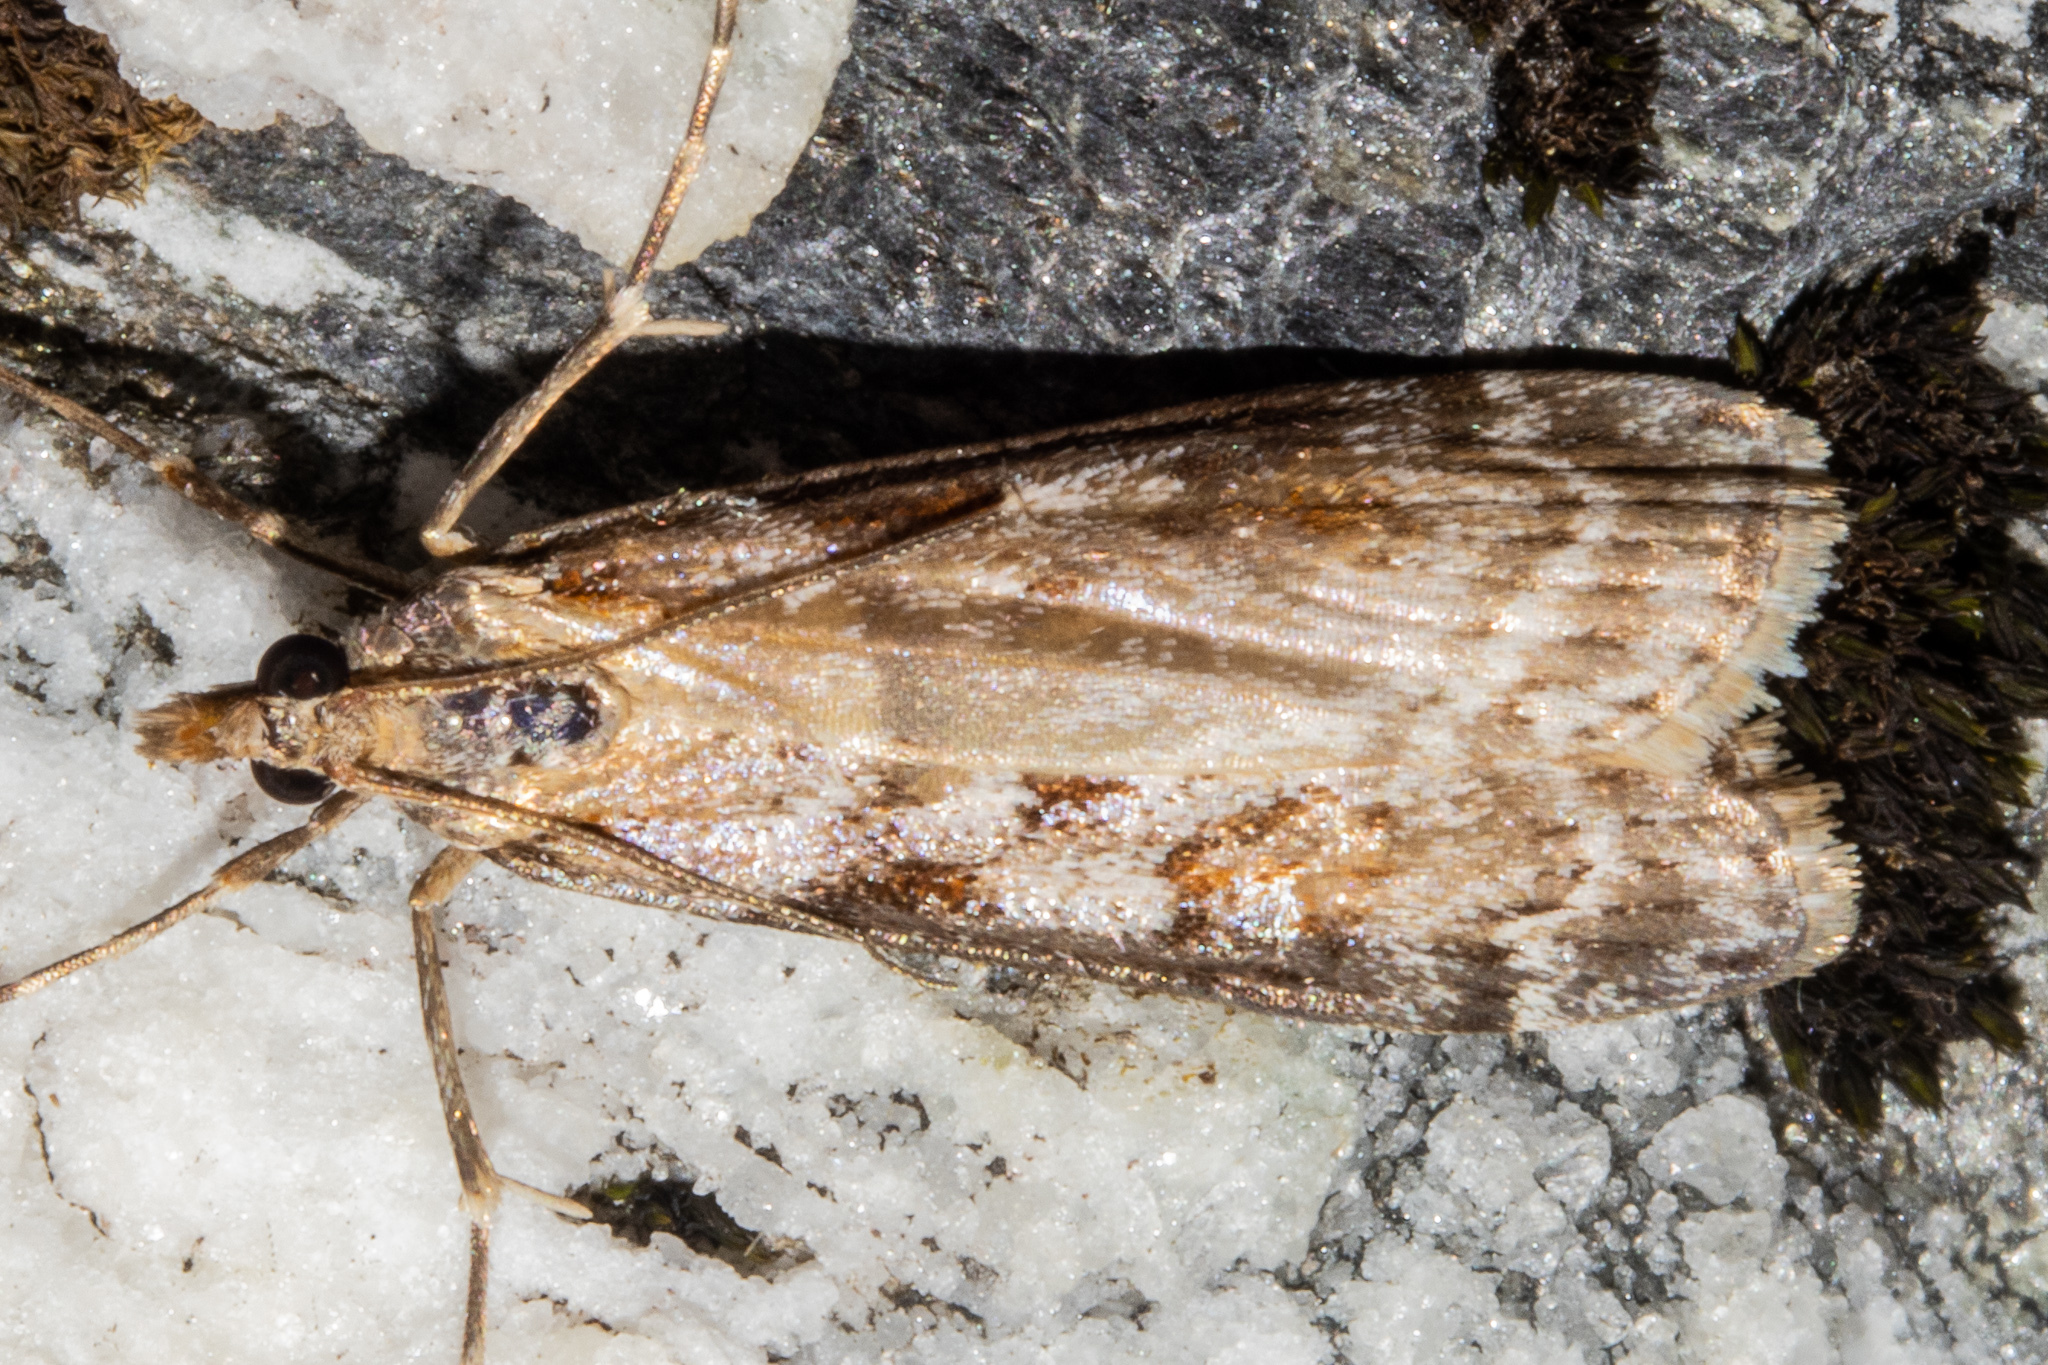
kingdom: Animalia
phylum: Arthropoda
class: Insecta
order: Lepidoptera
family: Crambidae
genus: Scoparia
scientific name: Scoparia cyameuta
